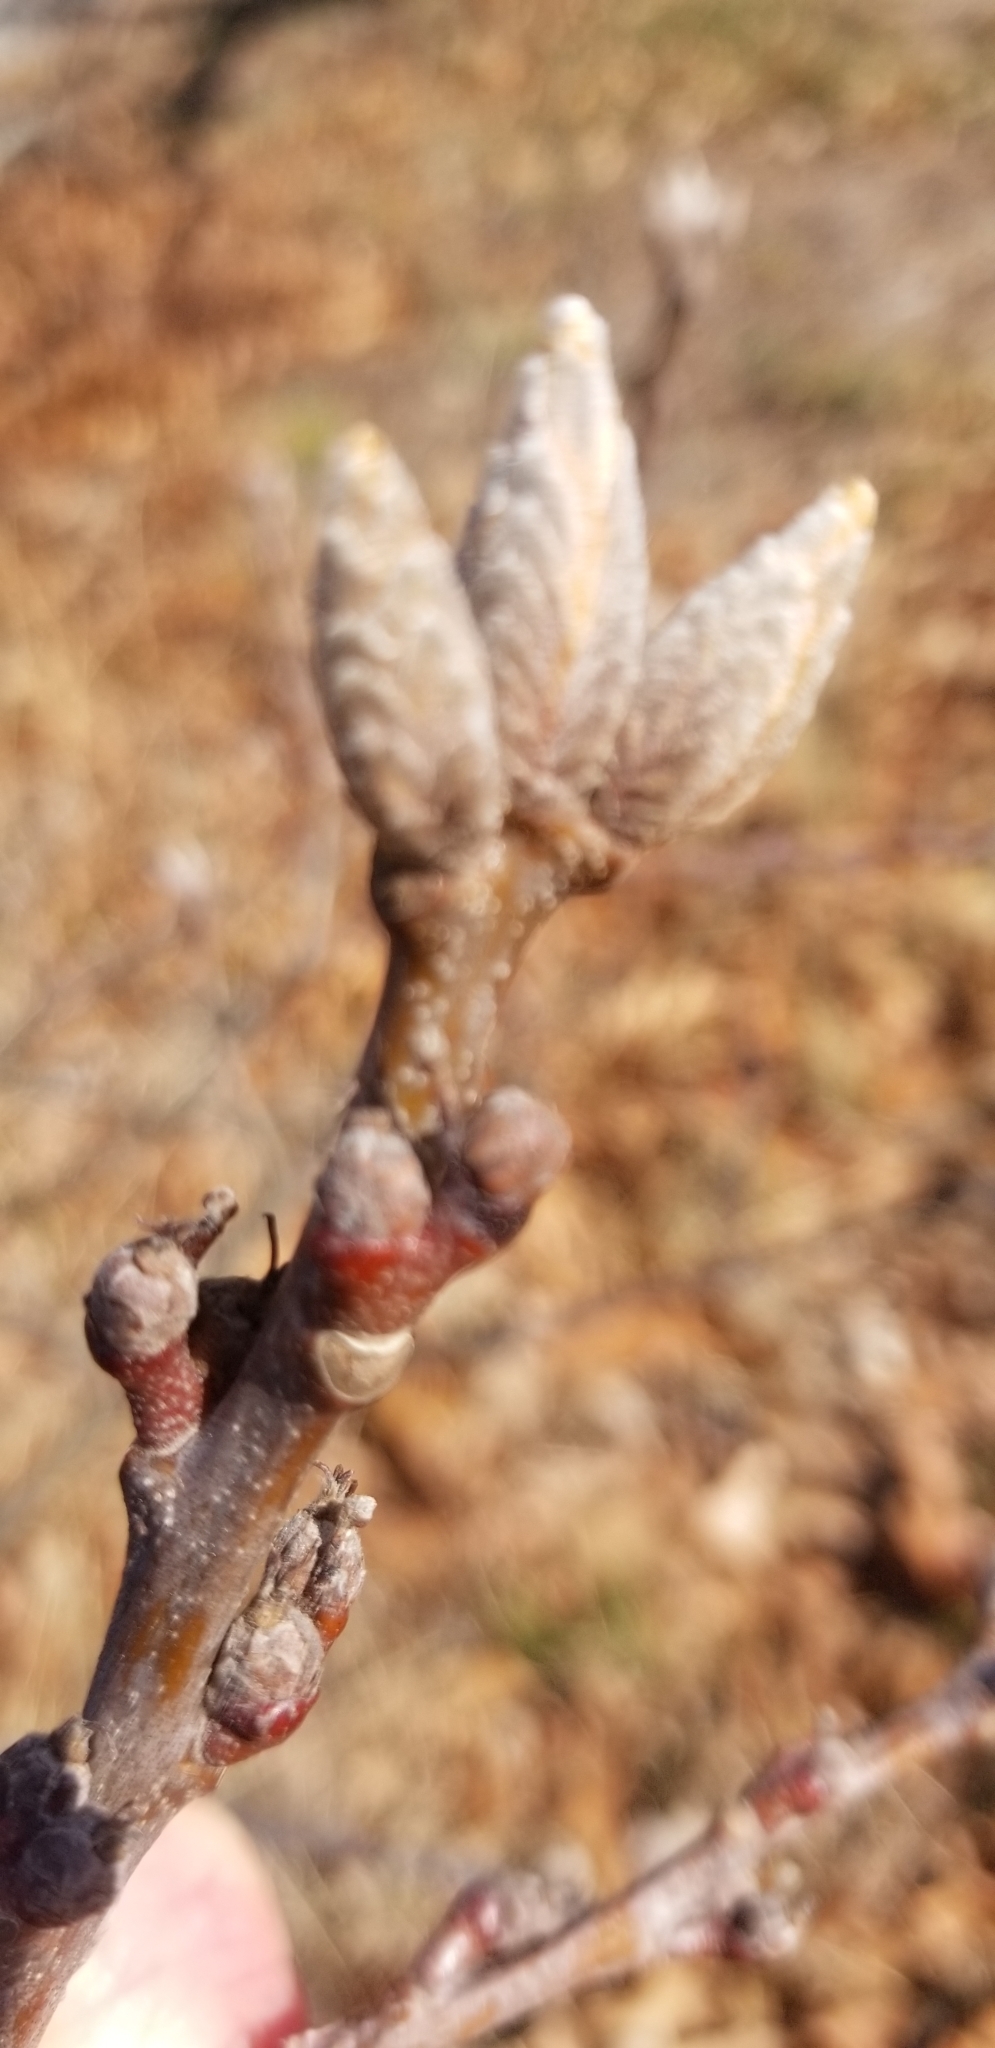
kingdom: Plantae
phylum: Tracheophyta
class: Magnoliopsida
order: Fagales
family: Fagaceae
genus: Quercus
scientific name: Quercus velutina
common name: Black oak
